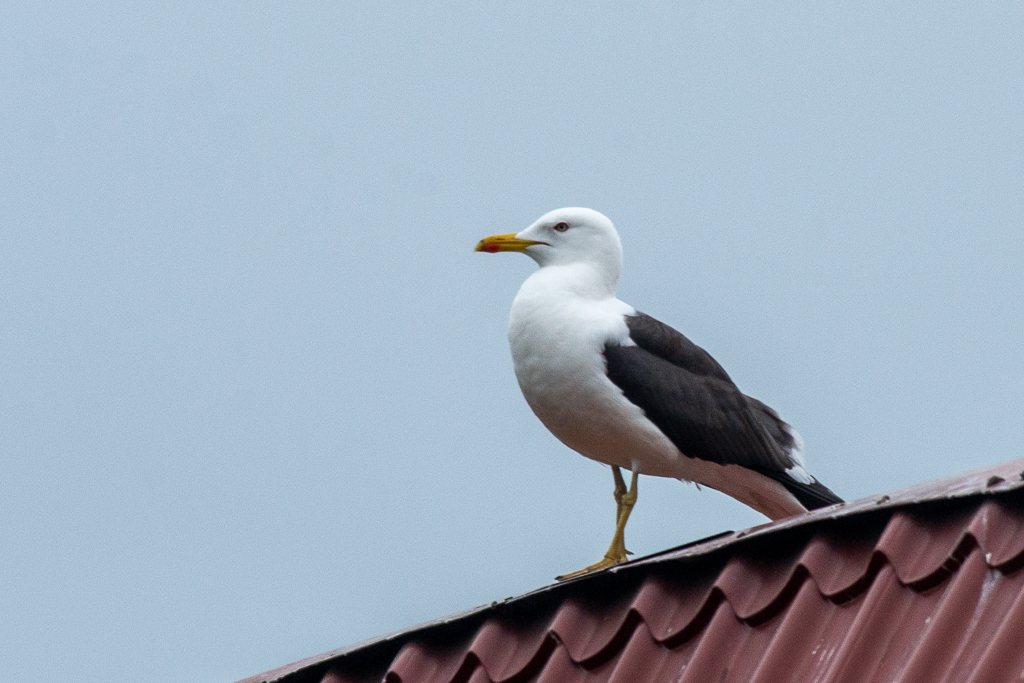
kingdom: Animalia
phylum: Chordata
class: Aves
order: Charadriiformes
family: Laridae
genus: Larus
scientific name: Larus fuscus
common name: Lesser black-backed gull
